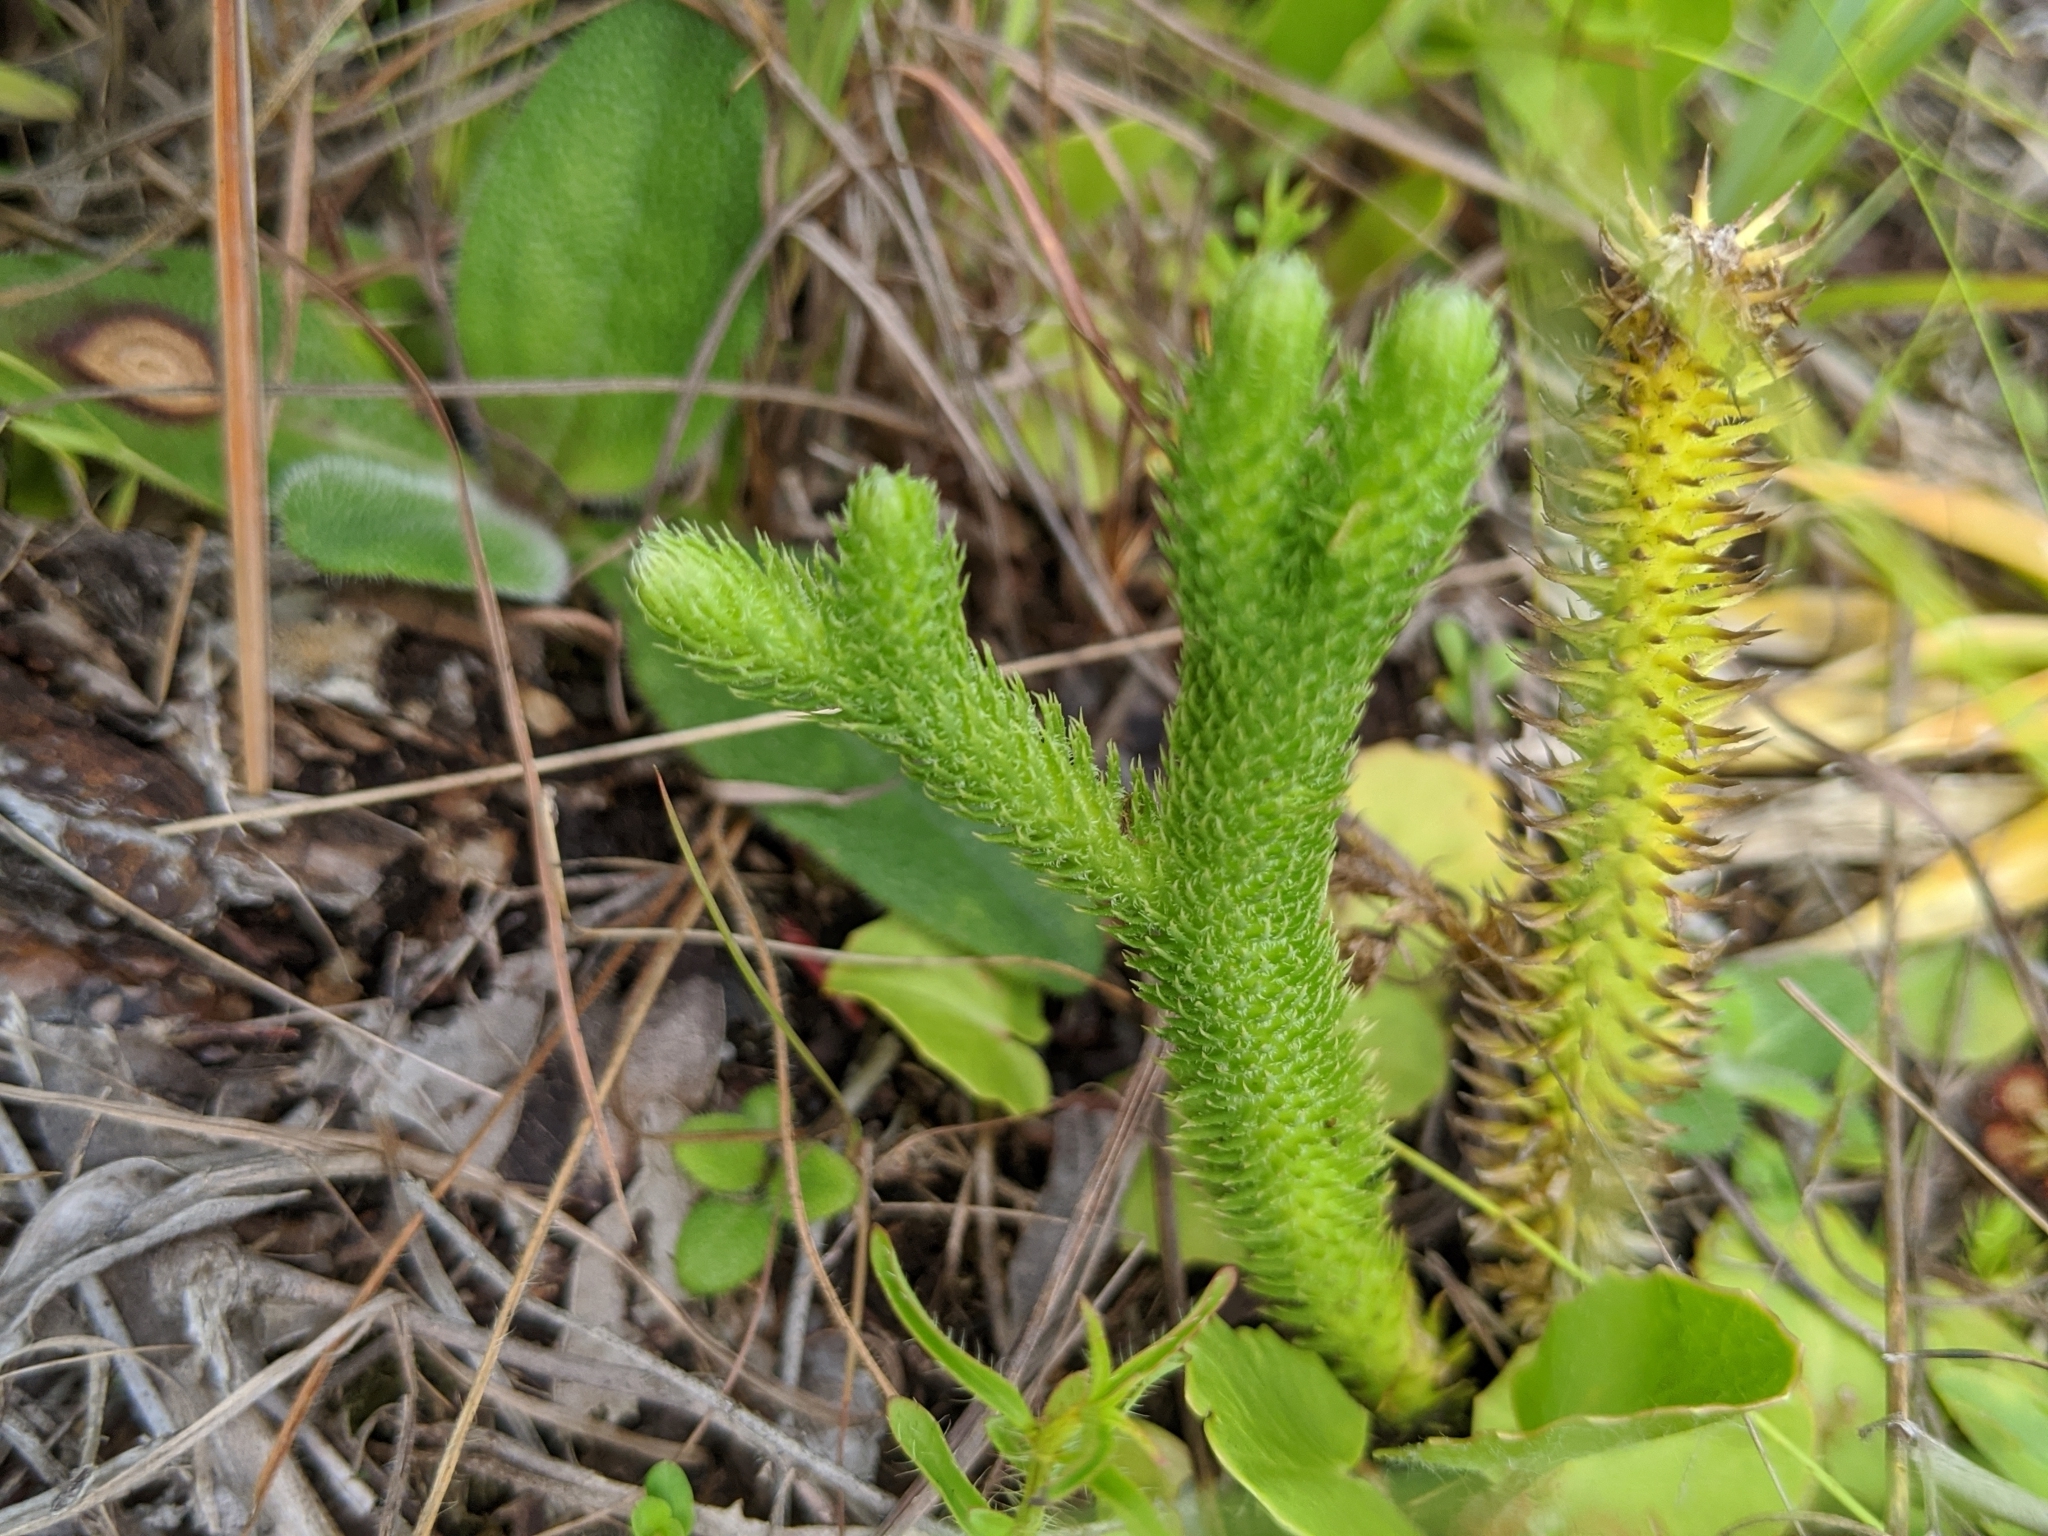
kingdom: Plantae
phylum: Tracheophyta
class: Lycopodiopsida
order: Lycopodiales
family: Lycopodiaceae
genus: Lycopodiella
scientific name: Lycopodiella alopecuroides
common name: Foxtail clubmoss
